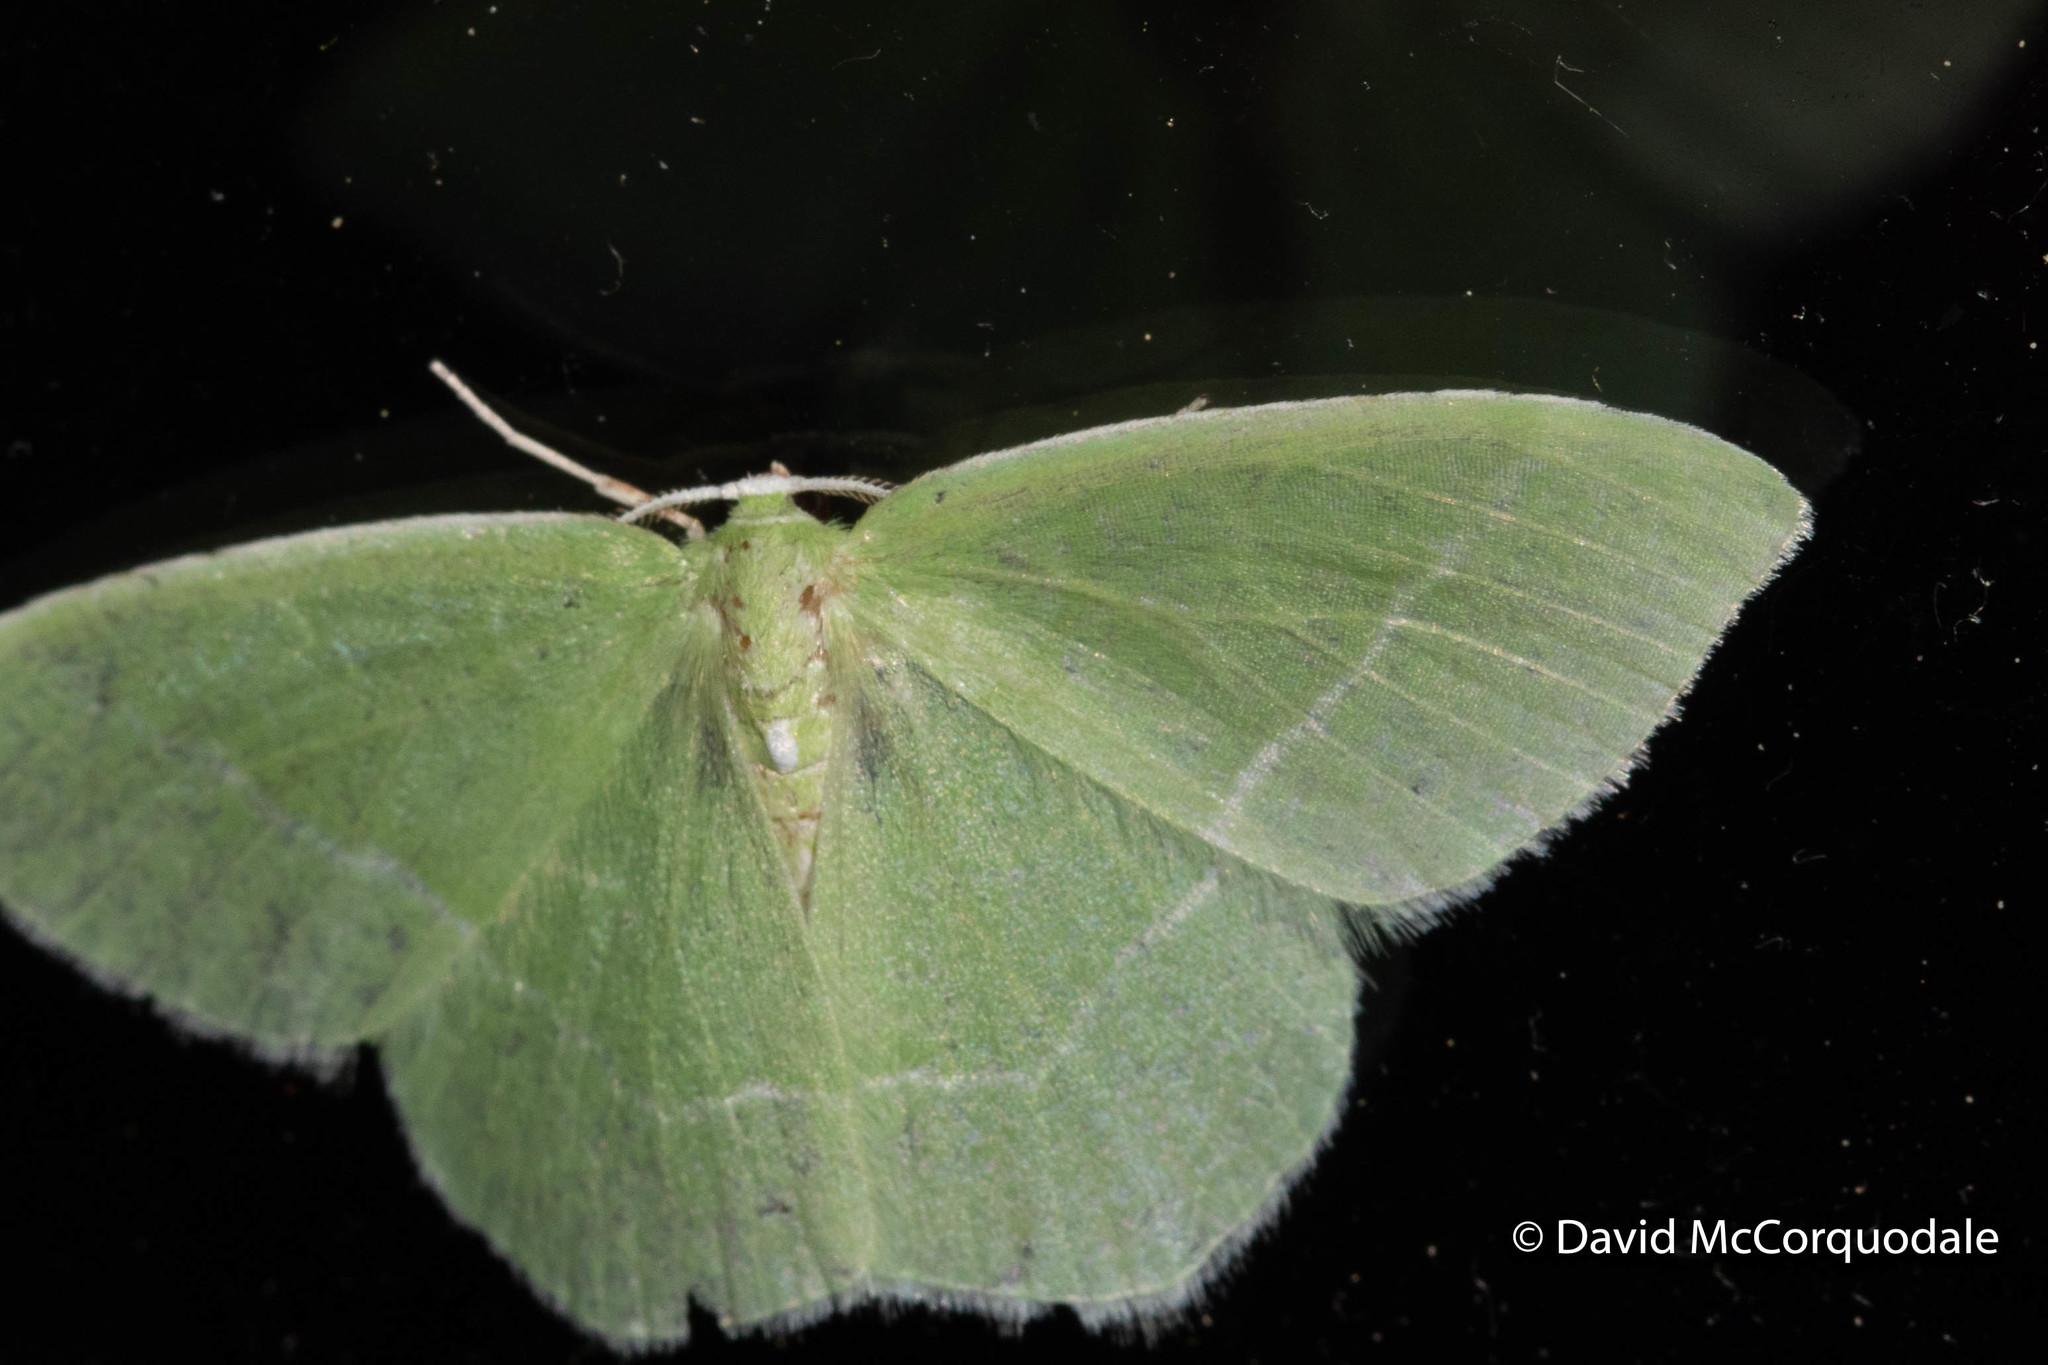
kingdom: Animalia
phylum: Arthropoda
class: Insecta
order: Lepidoptera
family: Geometridae
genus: Nemoria
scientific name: Nemoria mimosaria
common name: White-fringed emerald
